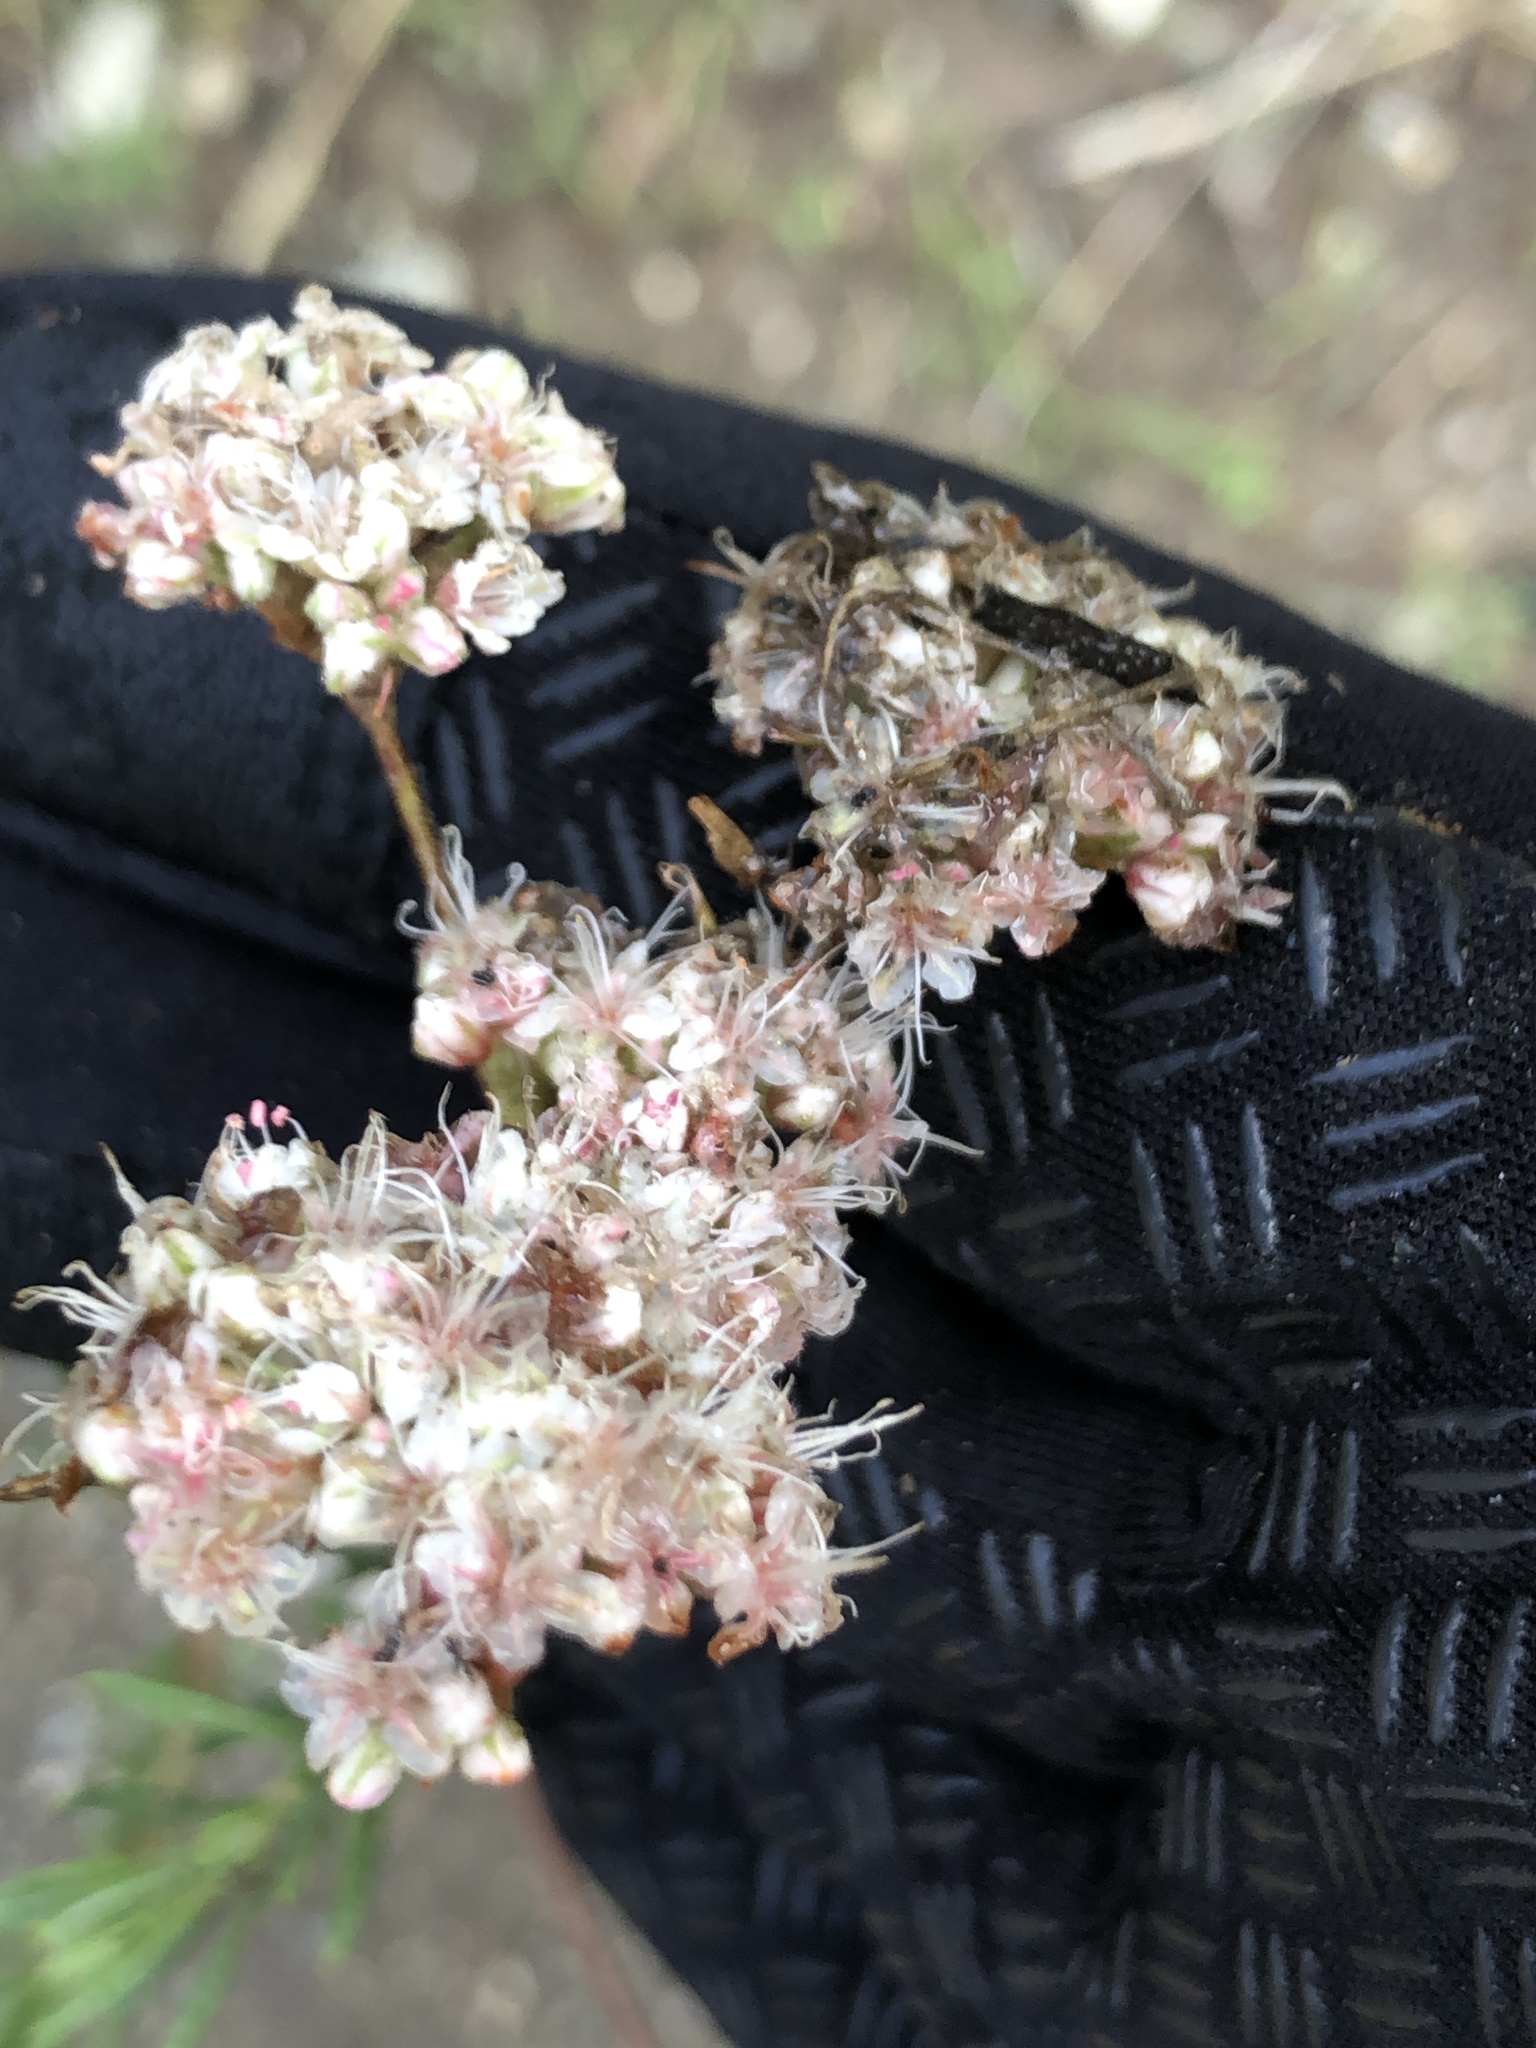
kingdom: Plantae
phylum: Tracheophyta
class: Magnoliopsida
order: Caryophyllales
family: Polygonaceae
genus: Eriogonum
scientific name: Eriogonum fasciculatum
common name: California wild buckwheat
